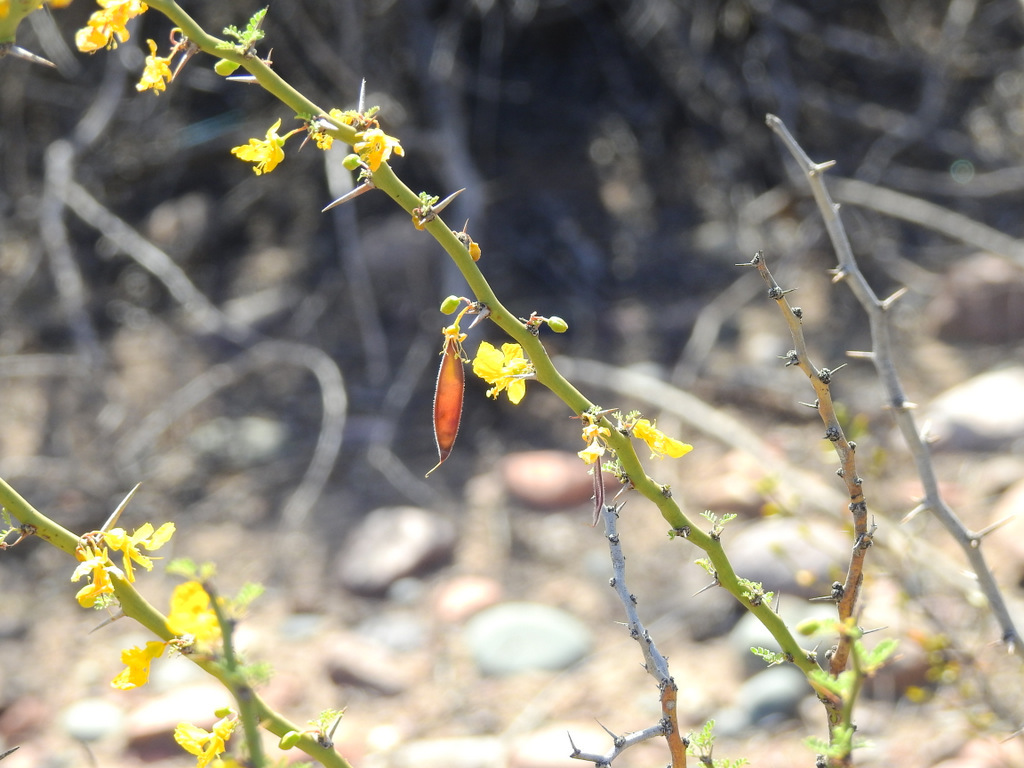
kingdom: Plantae
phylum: Tracheophyta
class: Magnoliopsida
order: Fabales
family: Fabaceae
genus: Parkinsonia
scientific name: Parkinsonia praecox
